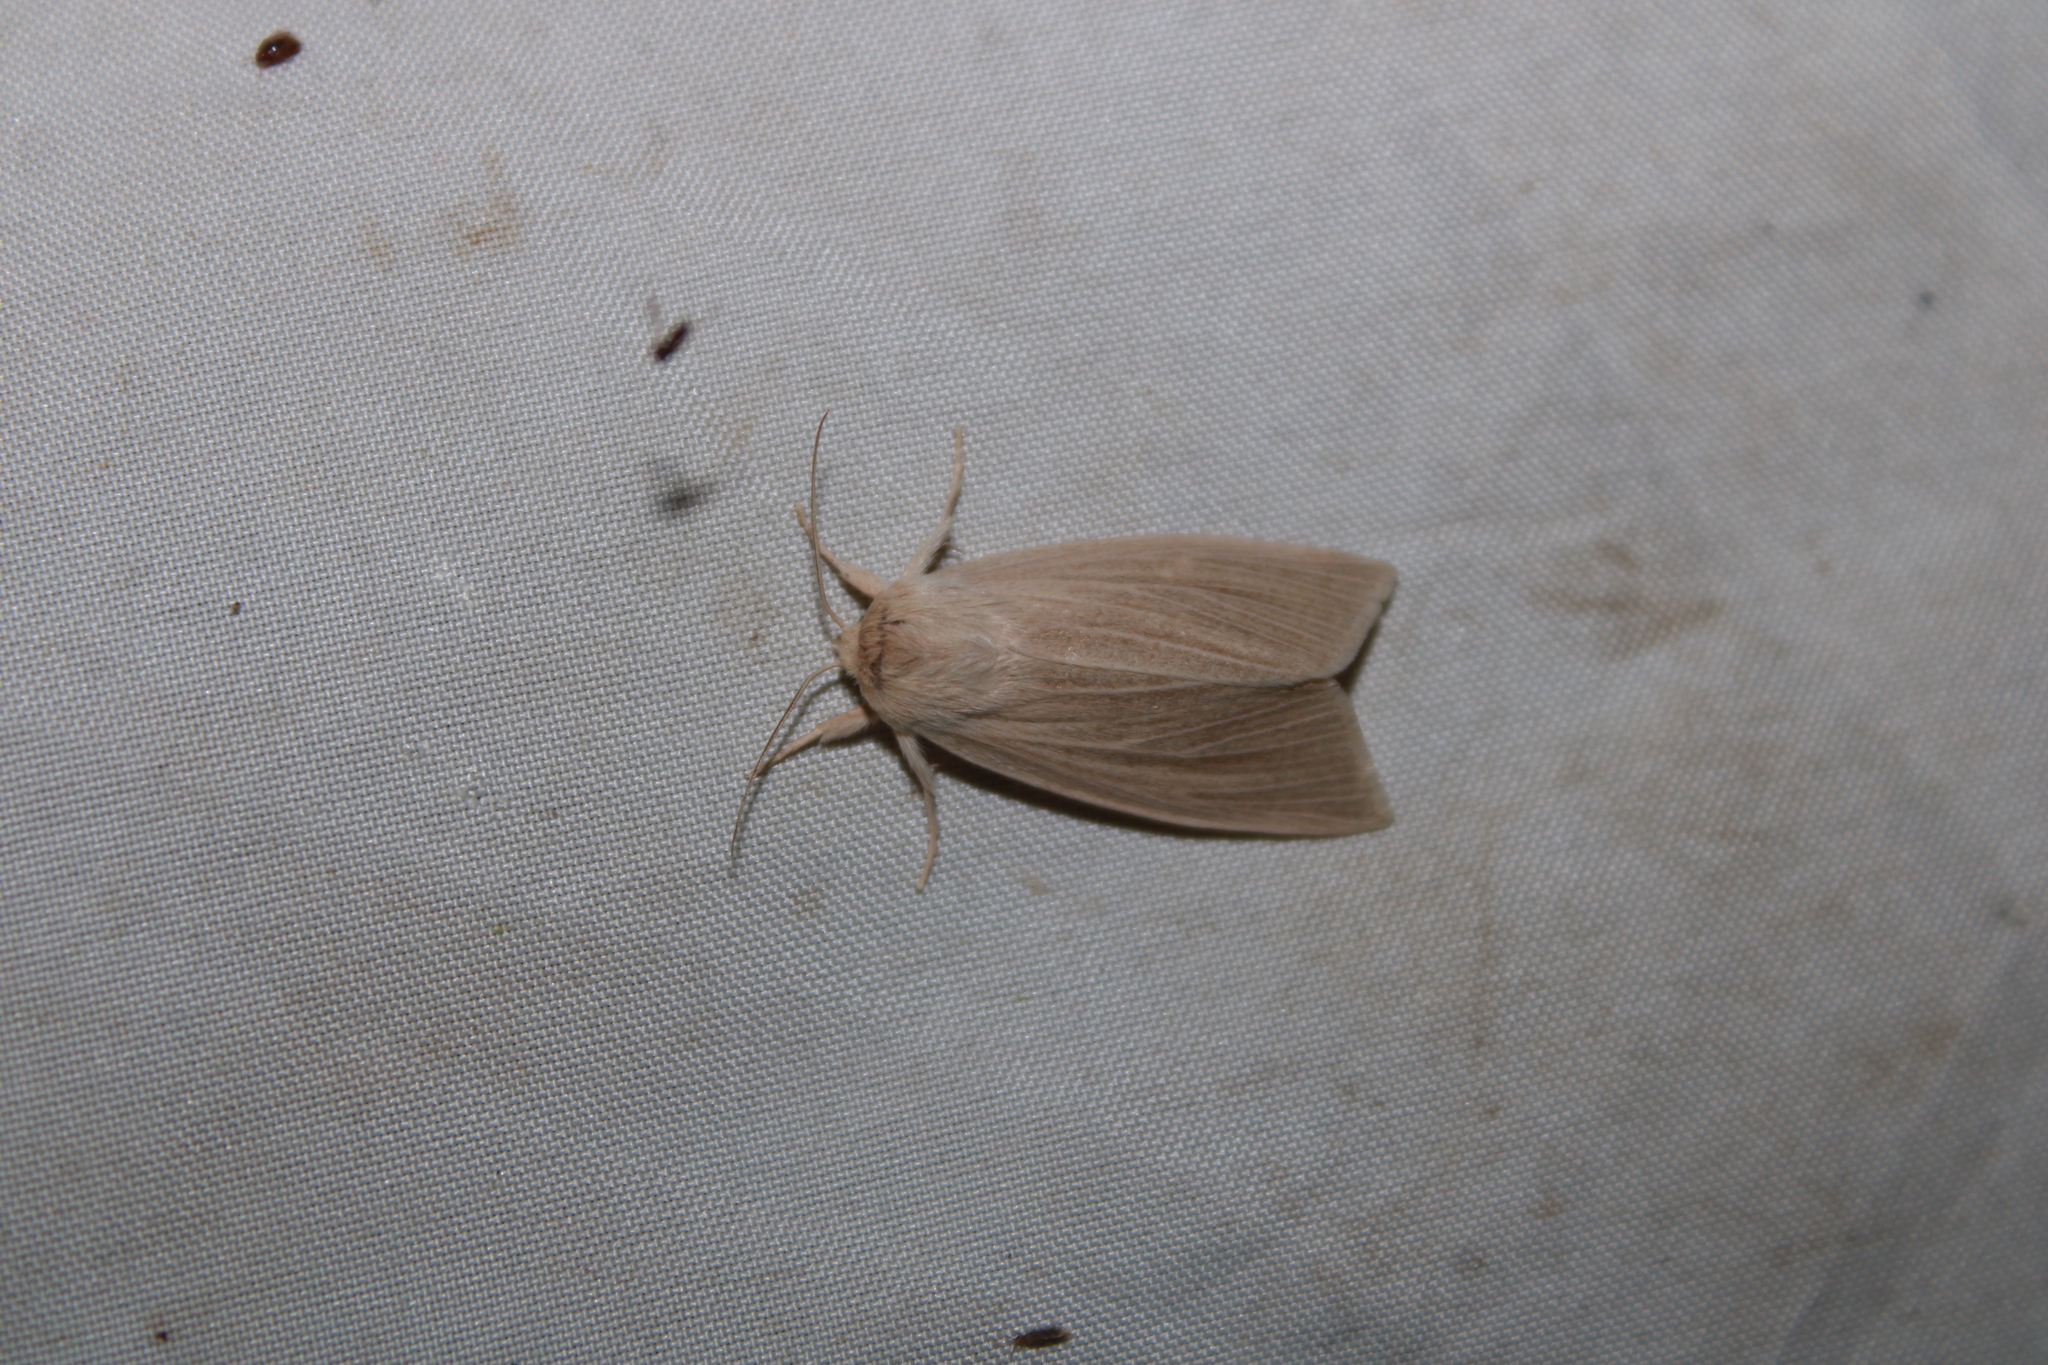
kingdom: Animalia
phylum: Arthropoda
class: Insecta
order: Lepidoptera
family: Noctuidae
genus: Acronicta
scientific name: Acronicta insularis
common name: Henry's marsh moth
